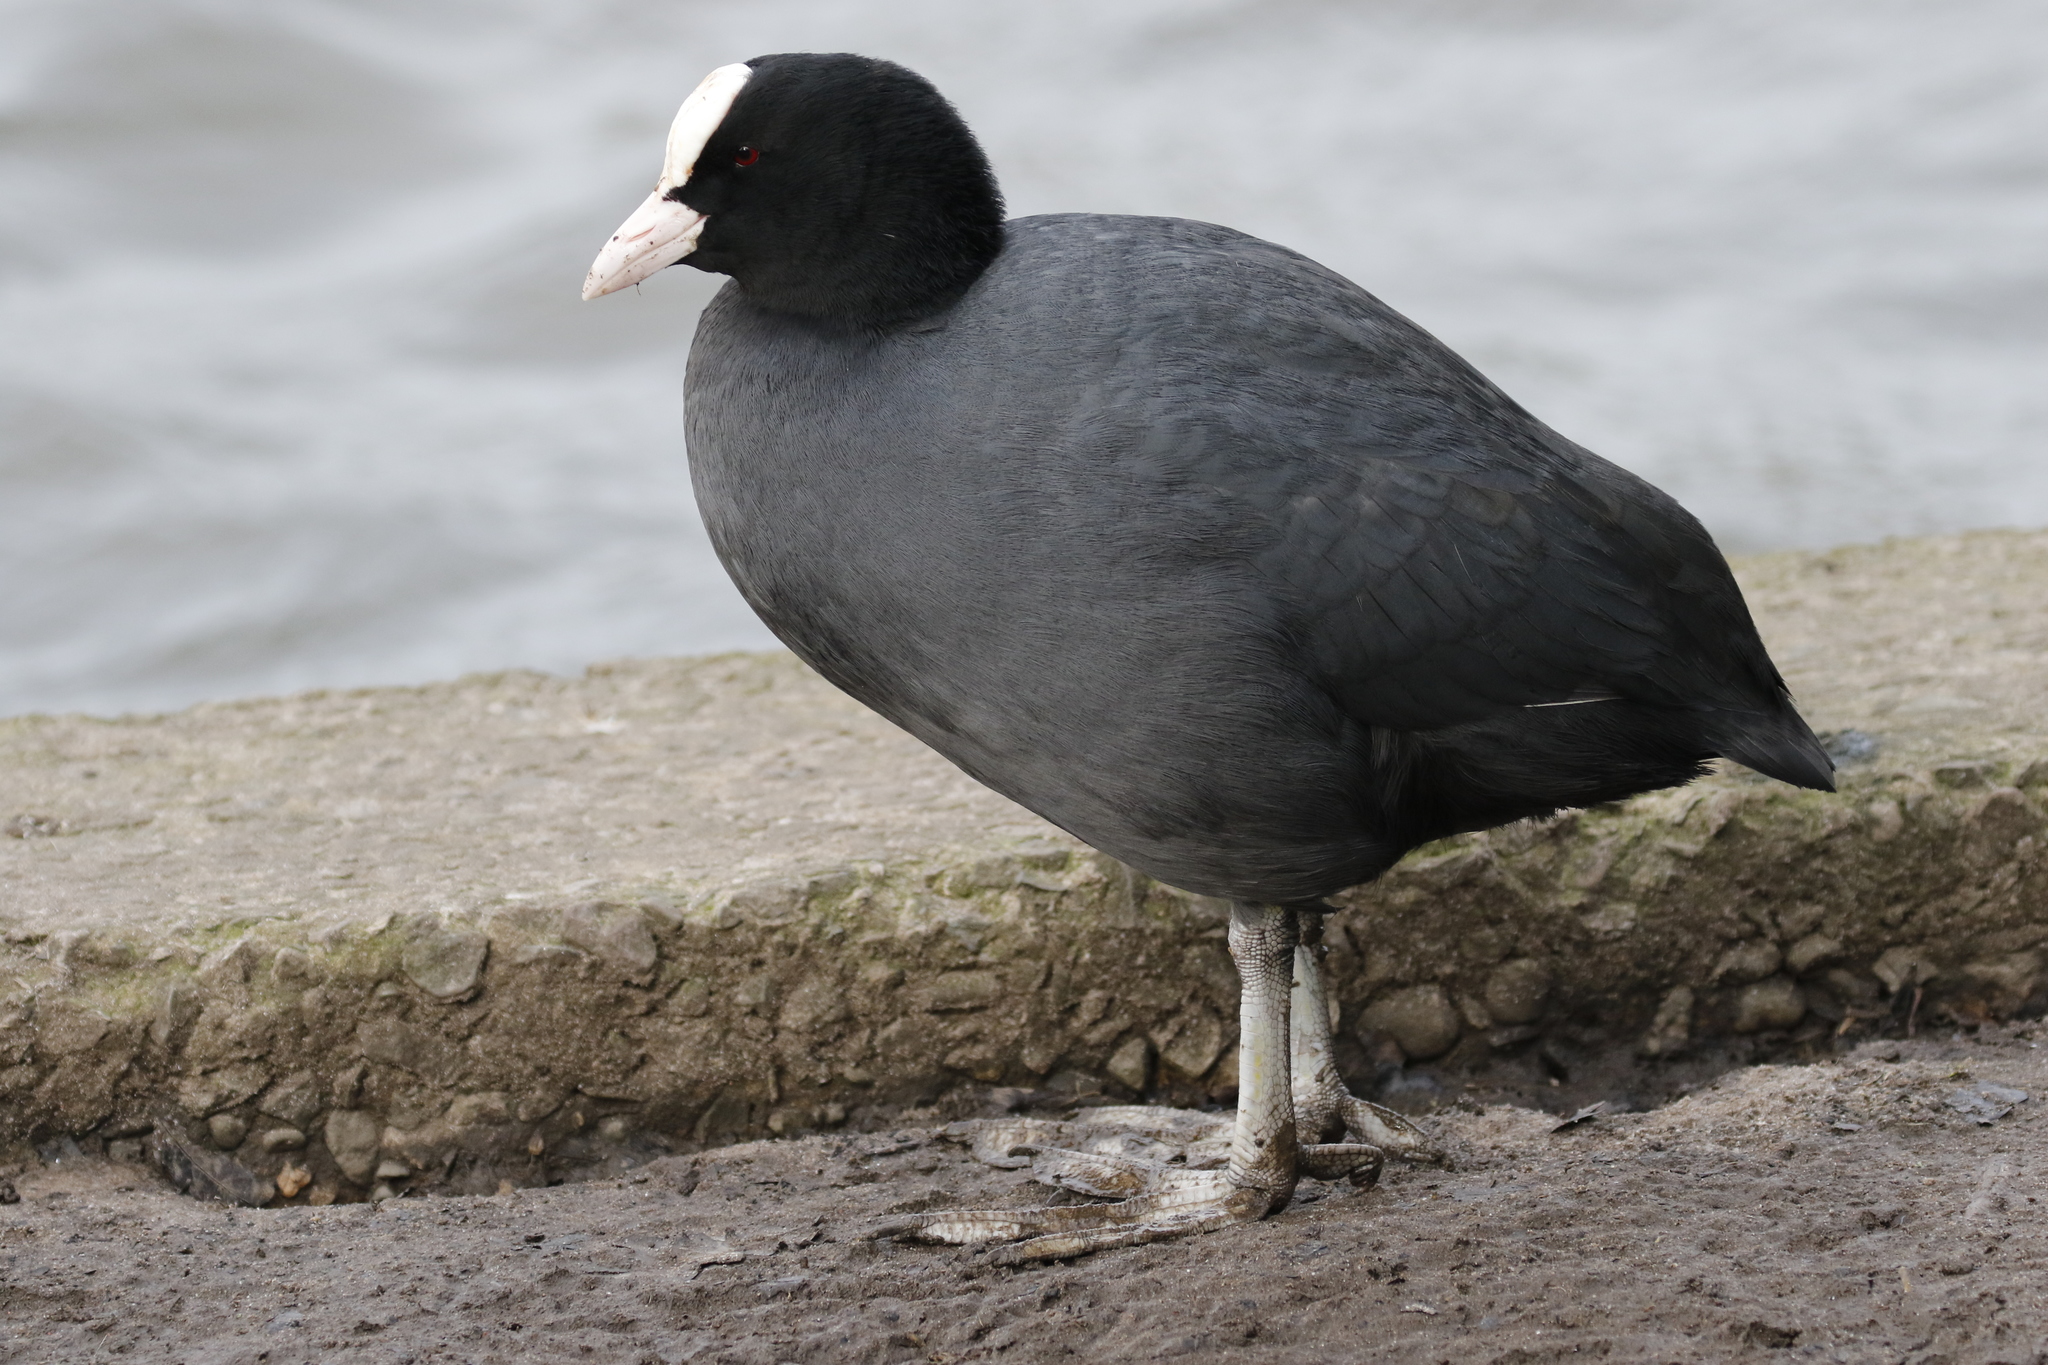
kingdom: Animalia
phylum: Chordata
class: Aves
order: Gruiformes
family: Rallidae
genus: Fulica
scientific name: Fulica atra
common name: Eurasian coot
